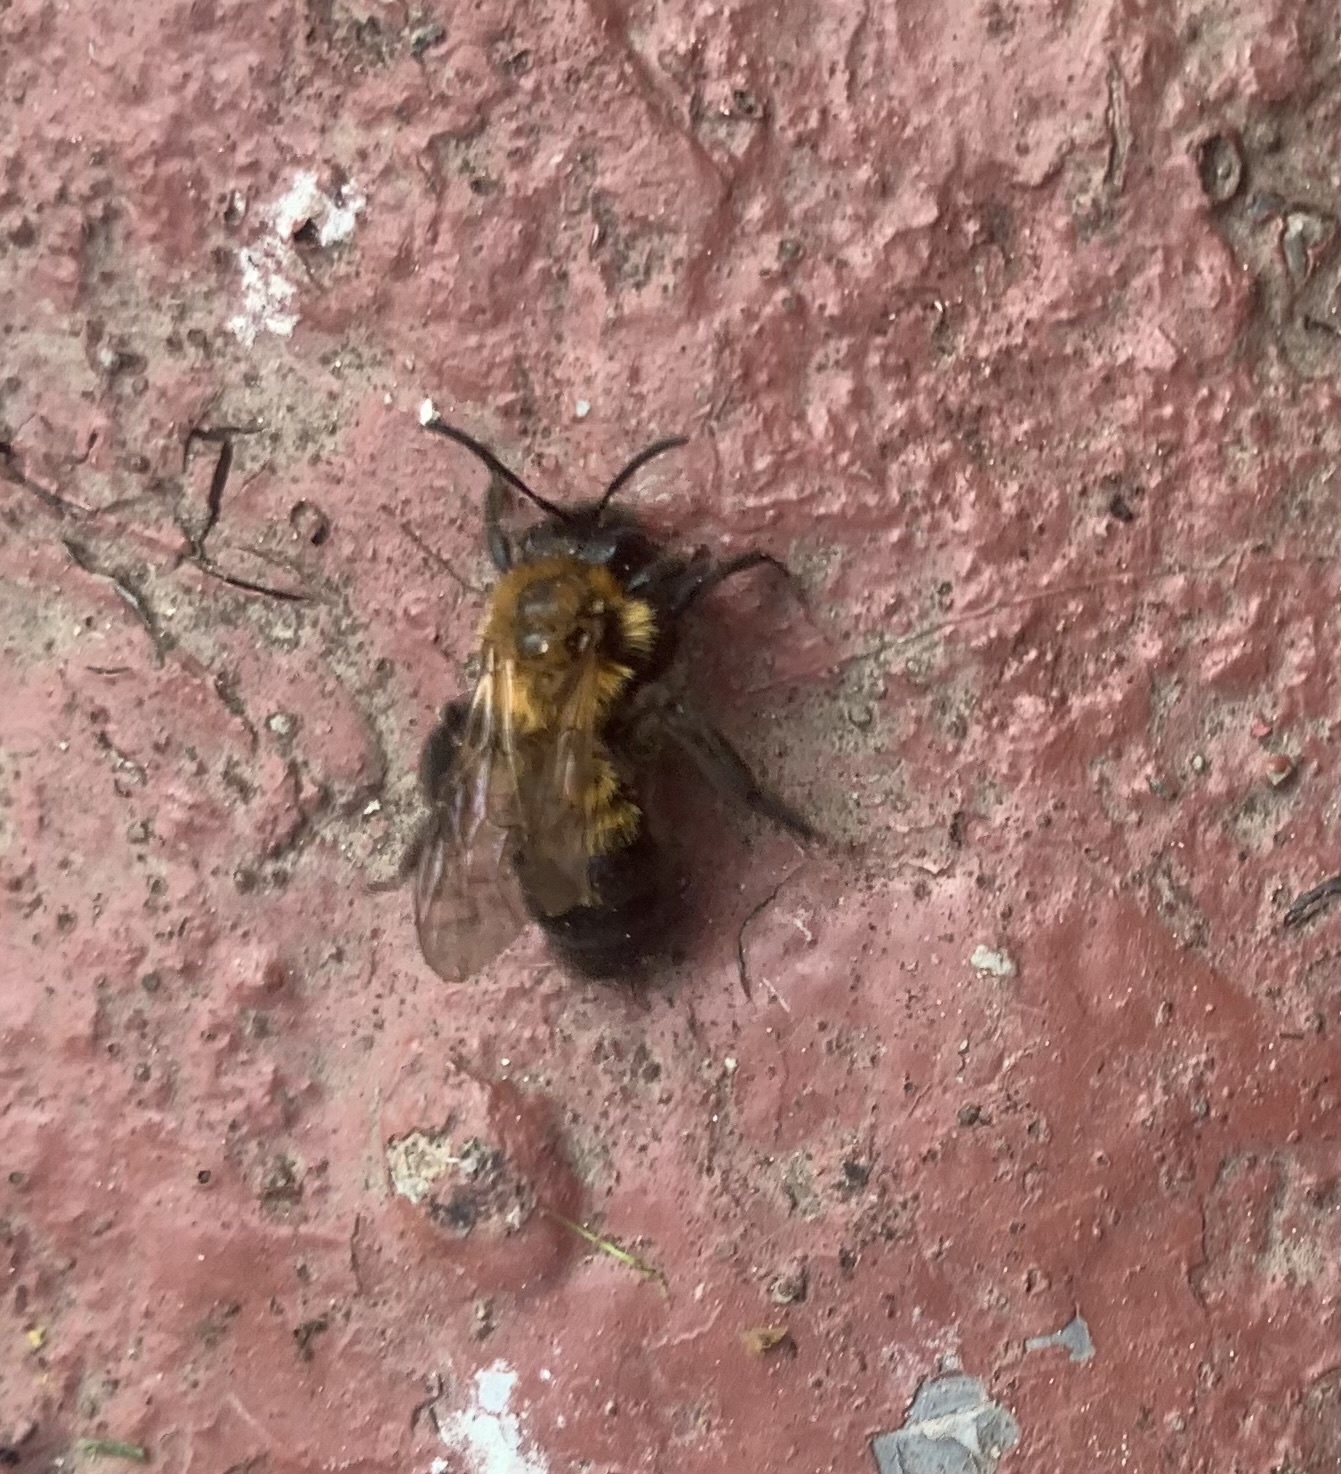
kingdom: Animalia
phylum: Arthropoda
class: Insecta
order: Hymenoptera
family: Andrenidae
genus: Andrena
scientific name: Andrena milwaukeensis
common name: Milwaukee mining bee
